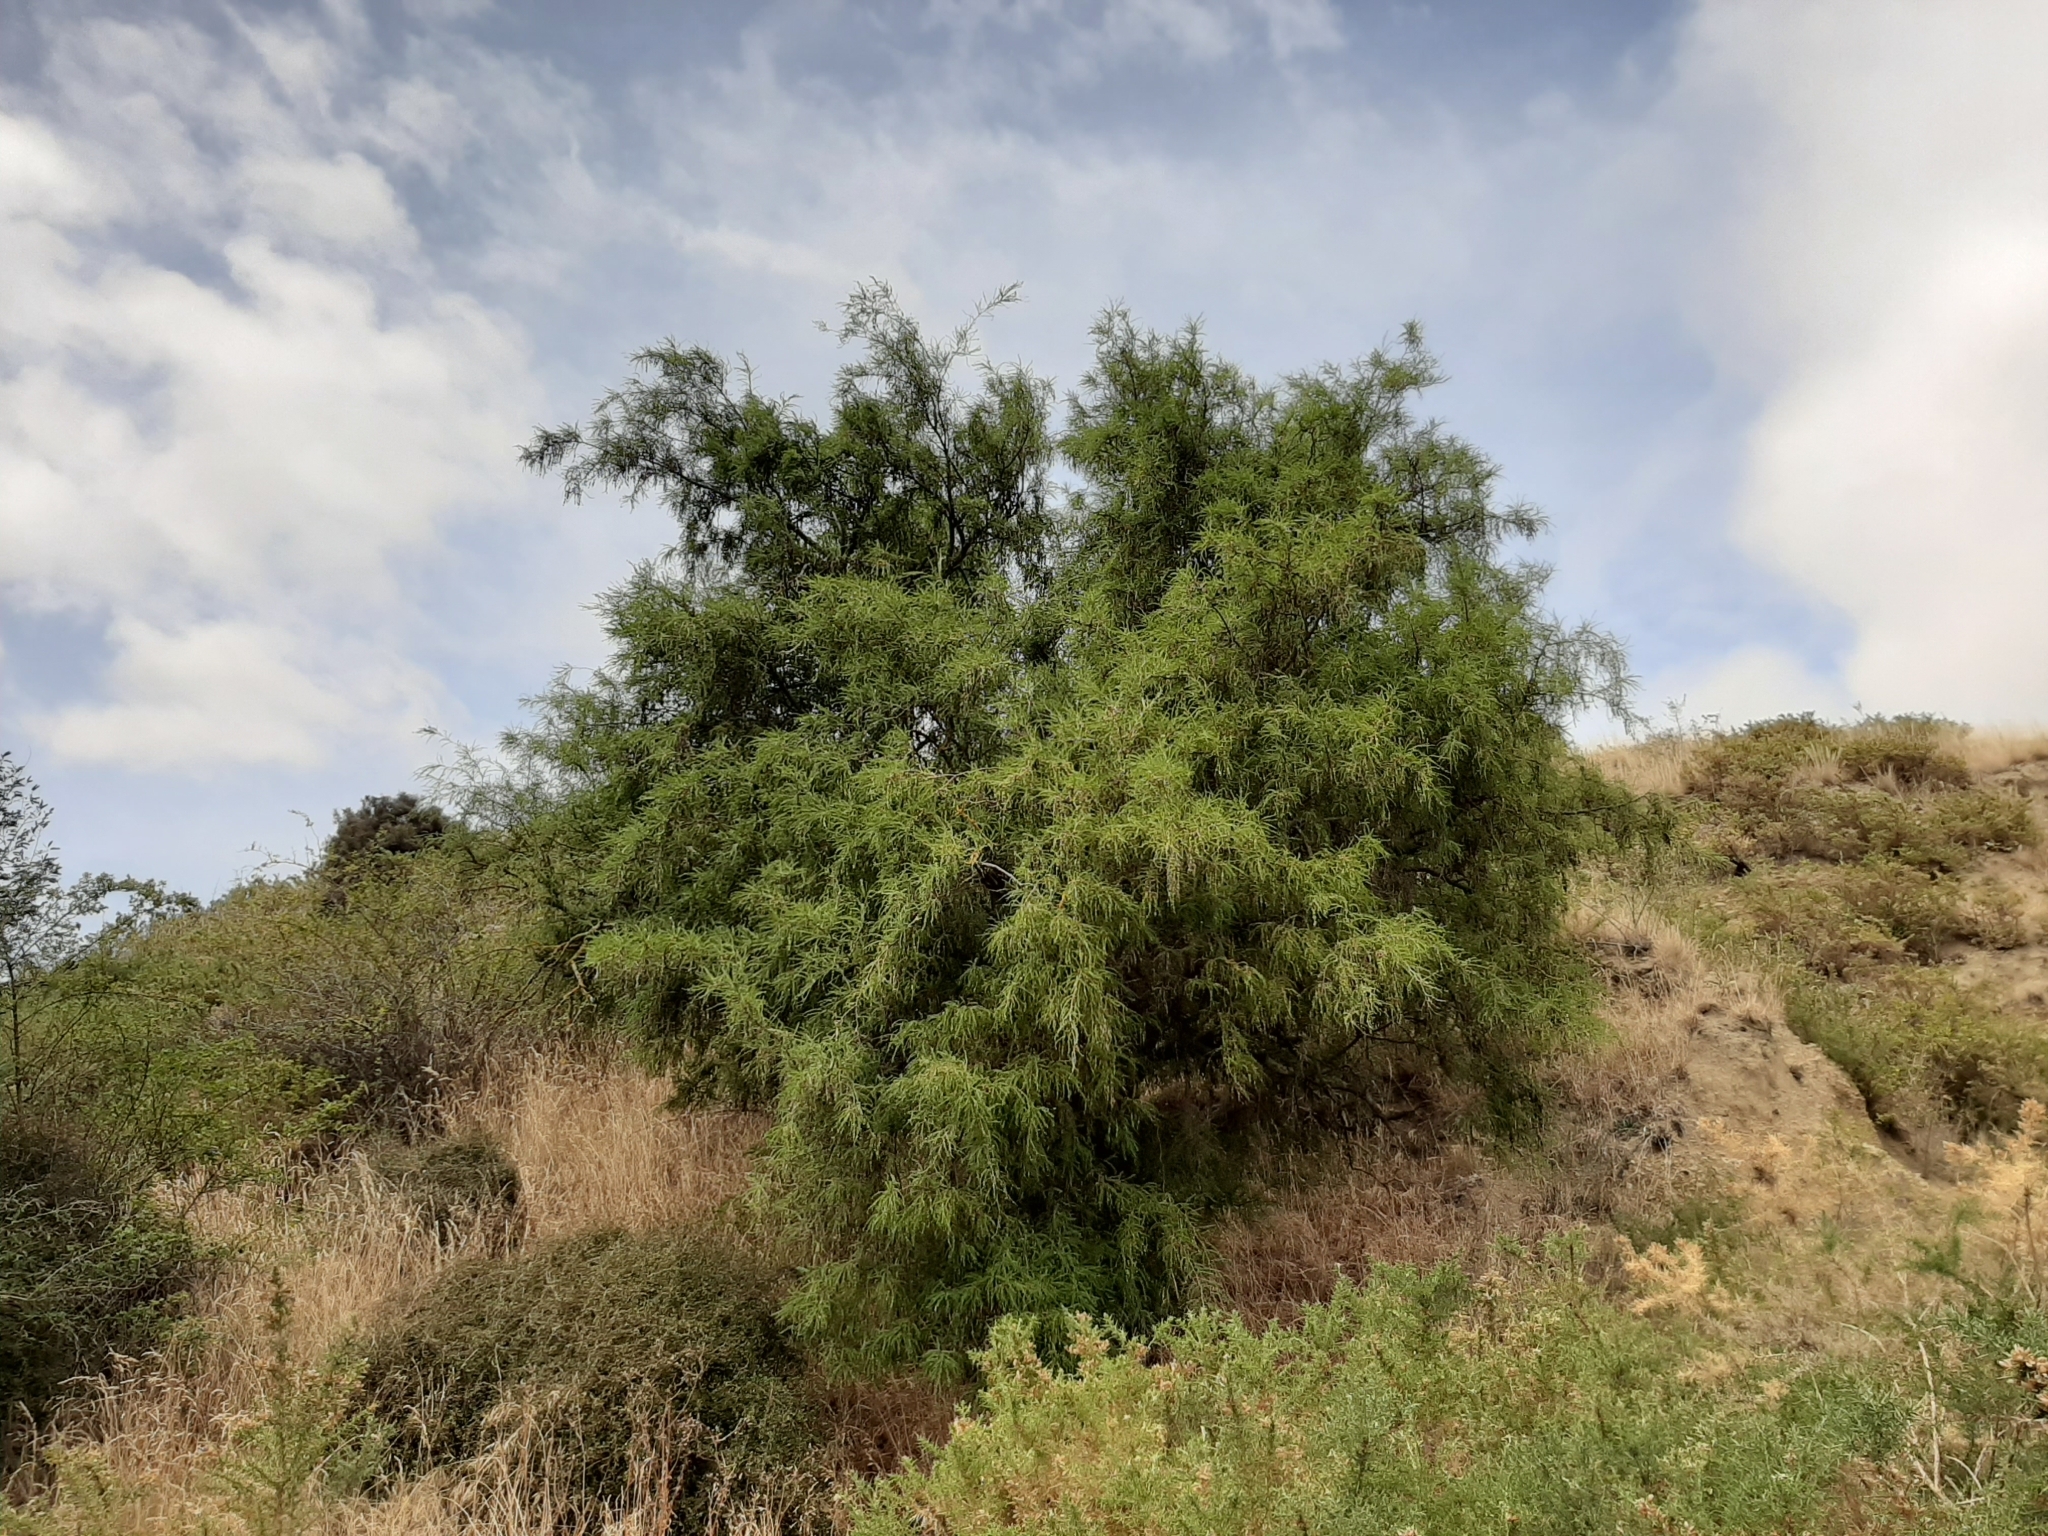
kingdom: Plantae
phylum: Tracheophyta
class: Magnoliopsida
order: Fabales
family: Fabaceae
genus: Sophora
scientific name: Sophora microphylla
